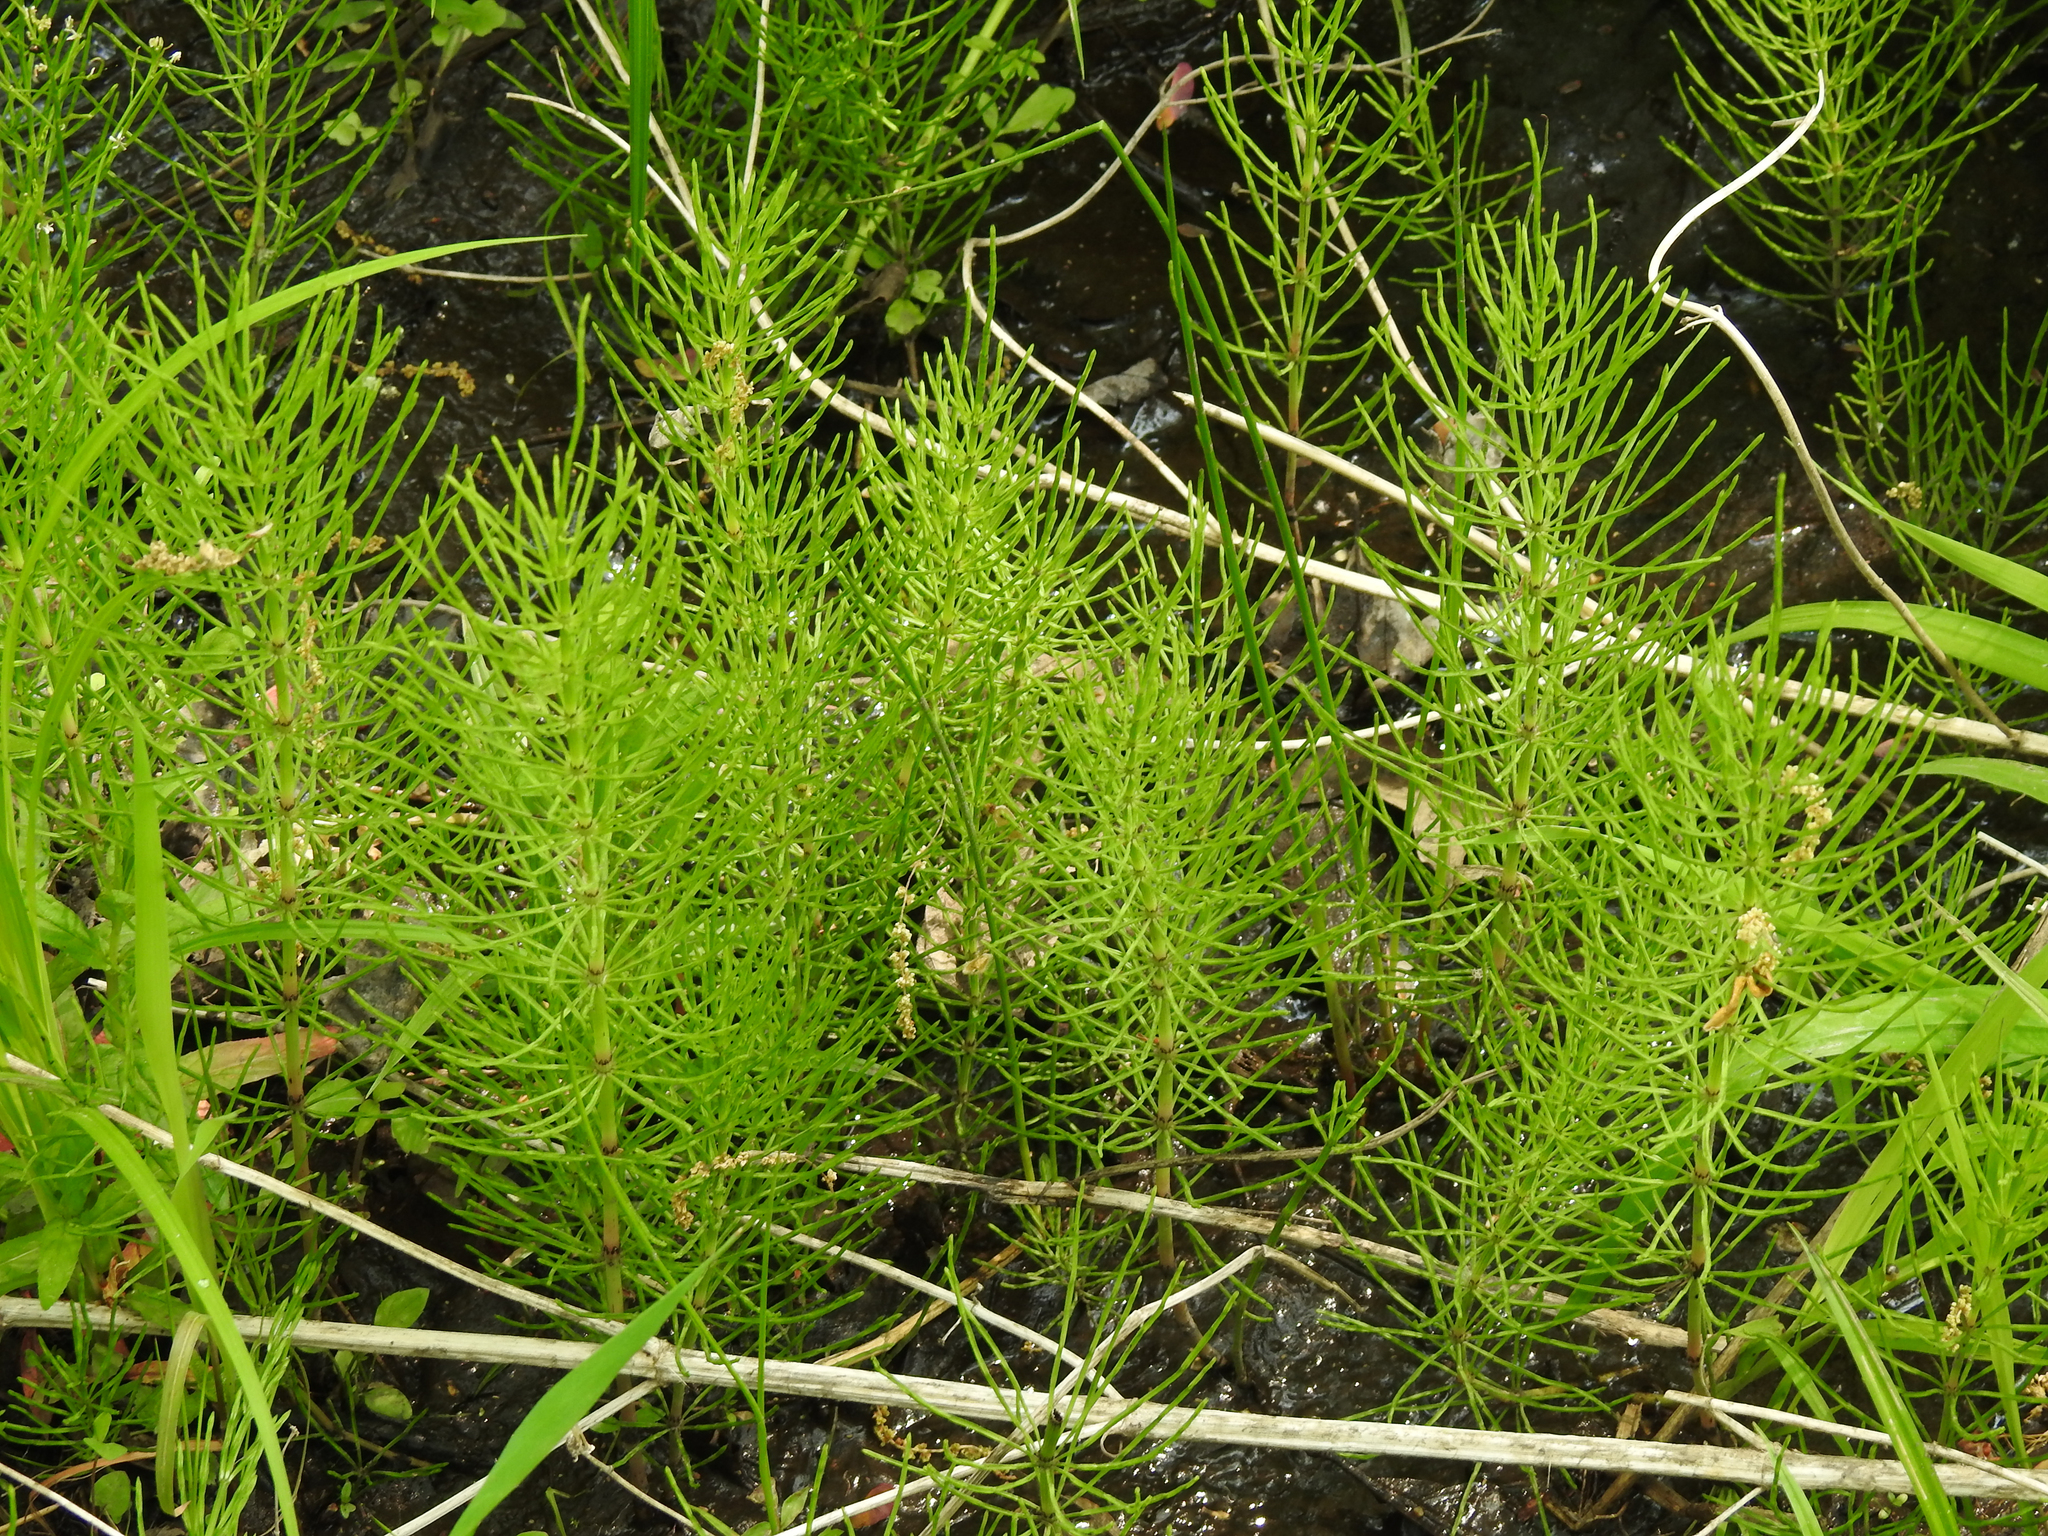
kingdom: Plantae
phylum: Tracheophyta
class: Polypodiopsida
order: Equisetales
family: Equisetaceae
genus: Equisetum
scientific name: Equisetum arvense
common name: Field horsetail
